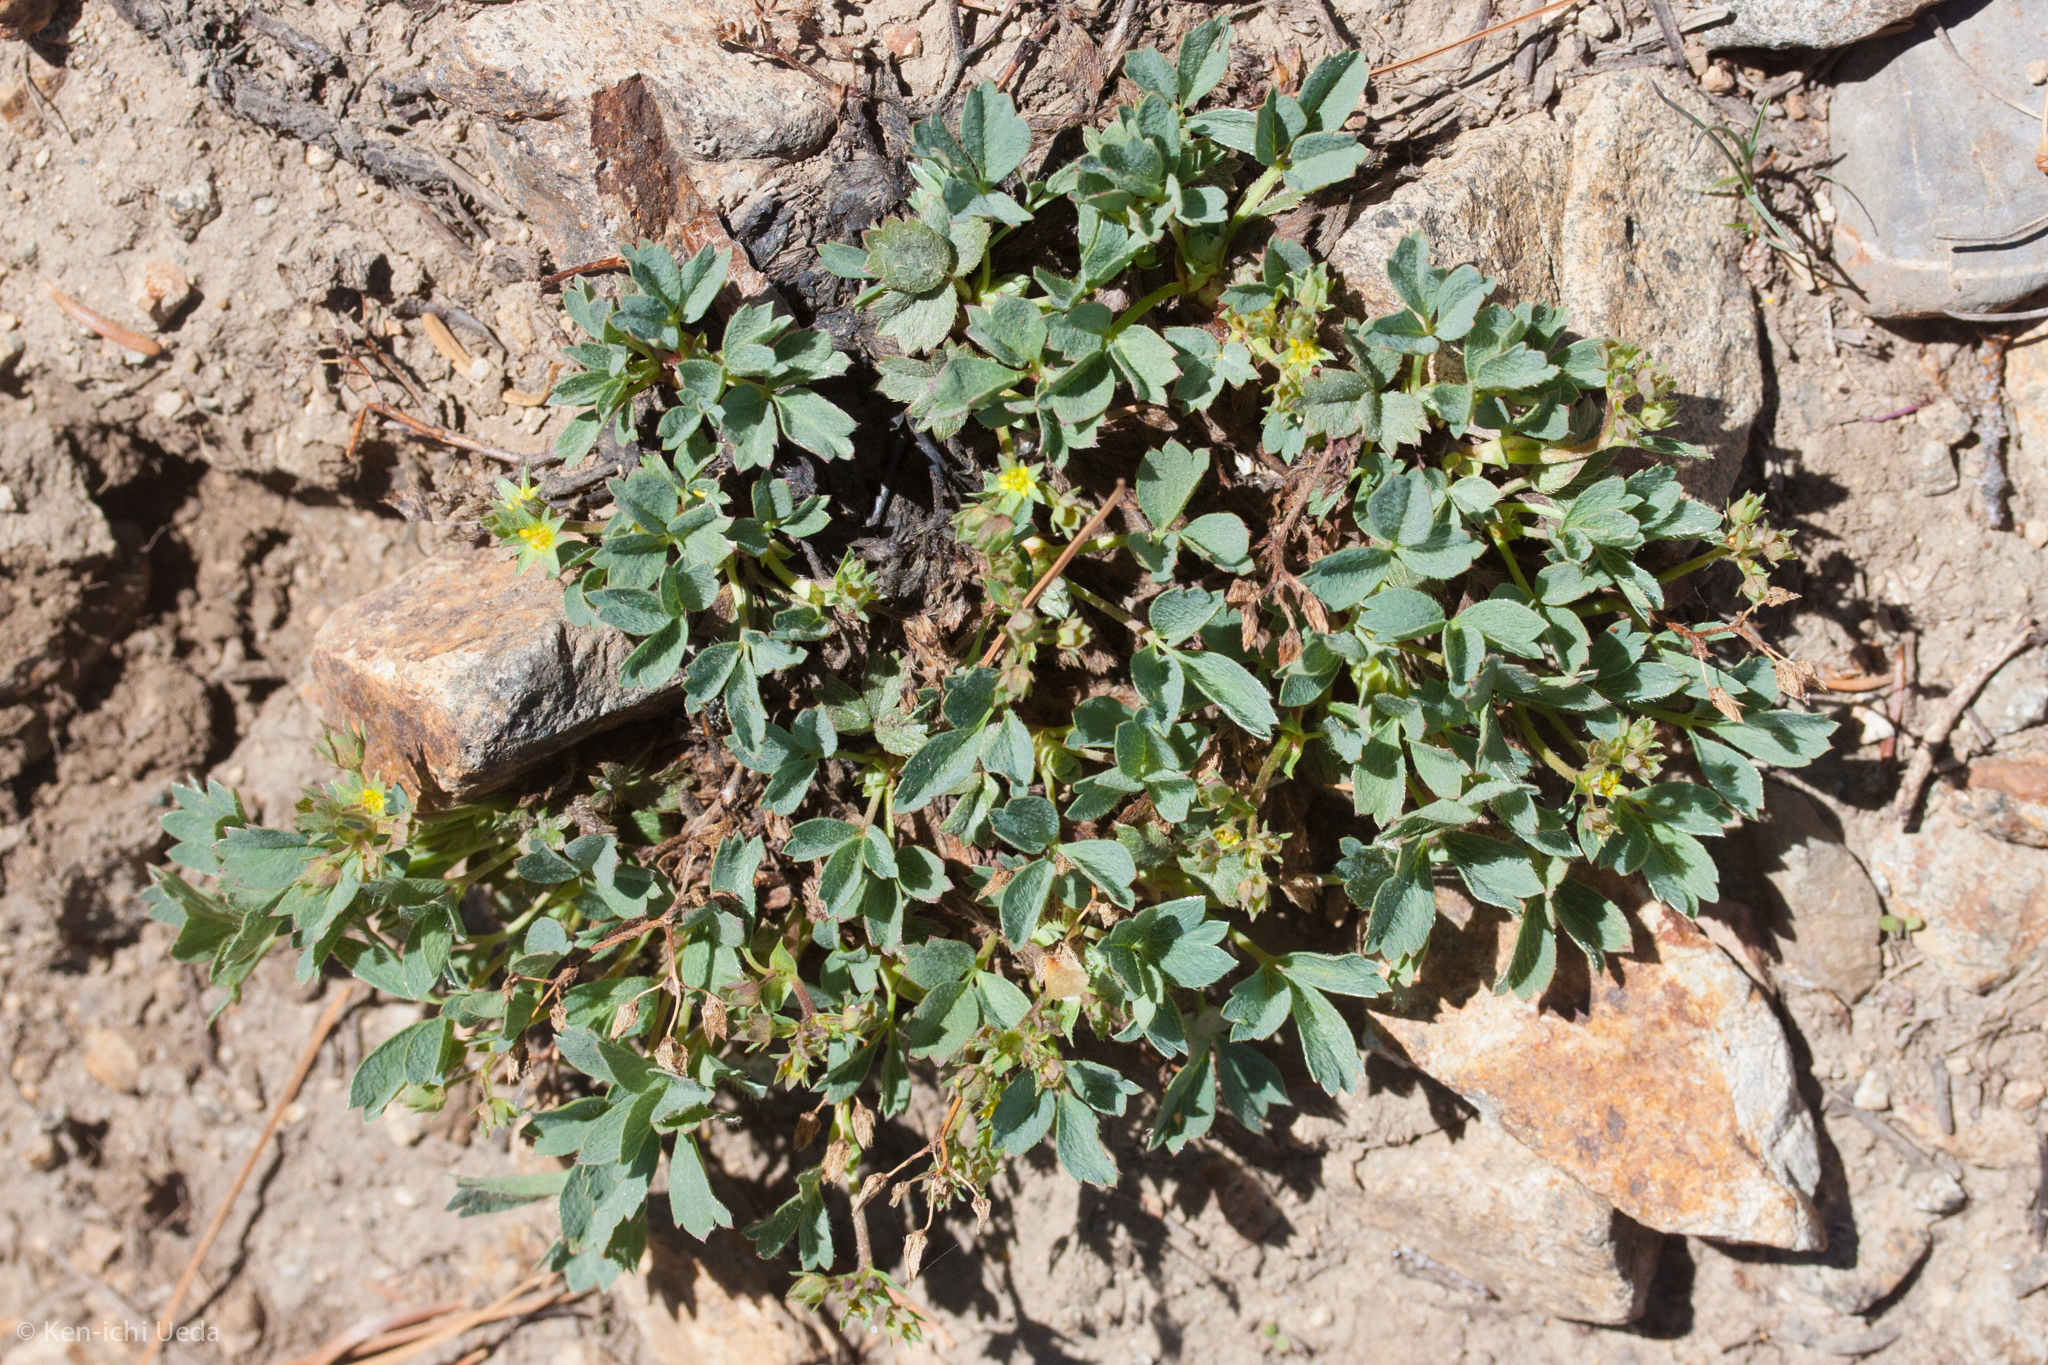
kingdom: Plantae
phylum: Tracheophyta
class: Magnoliopsida
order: Rosales
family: Rosaceae
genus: Sibbaldia
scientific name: Sibbaldia procumbens
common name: Creeping sibbaldia
